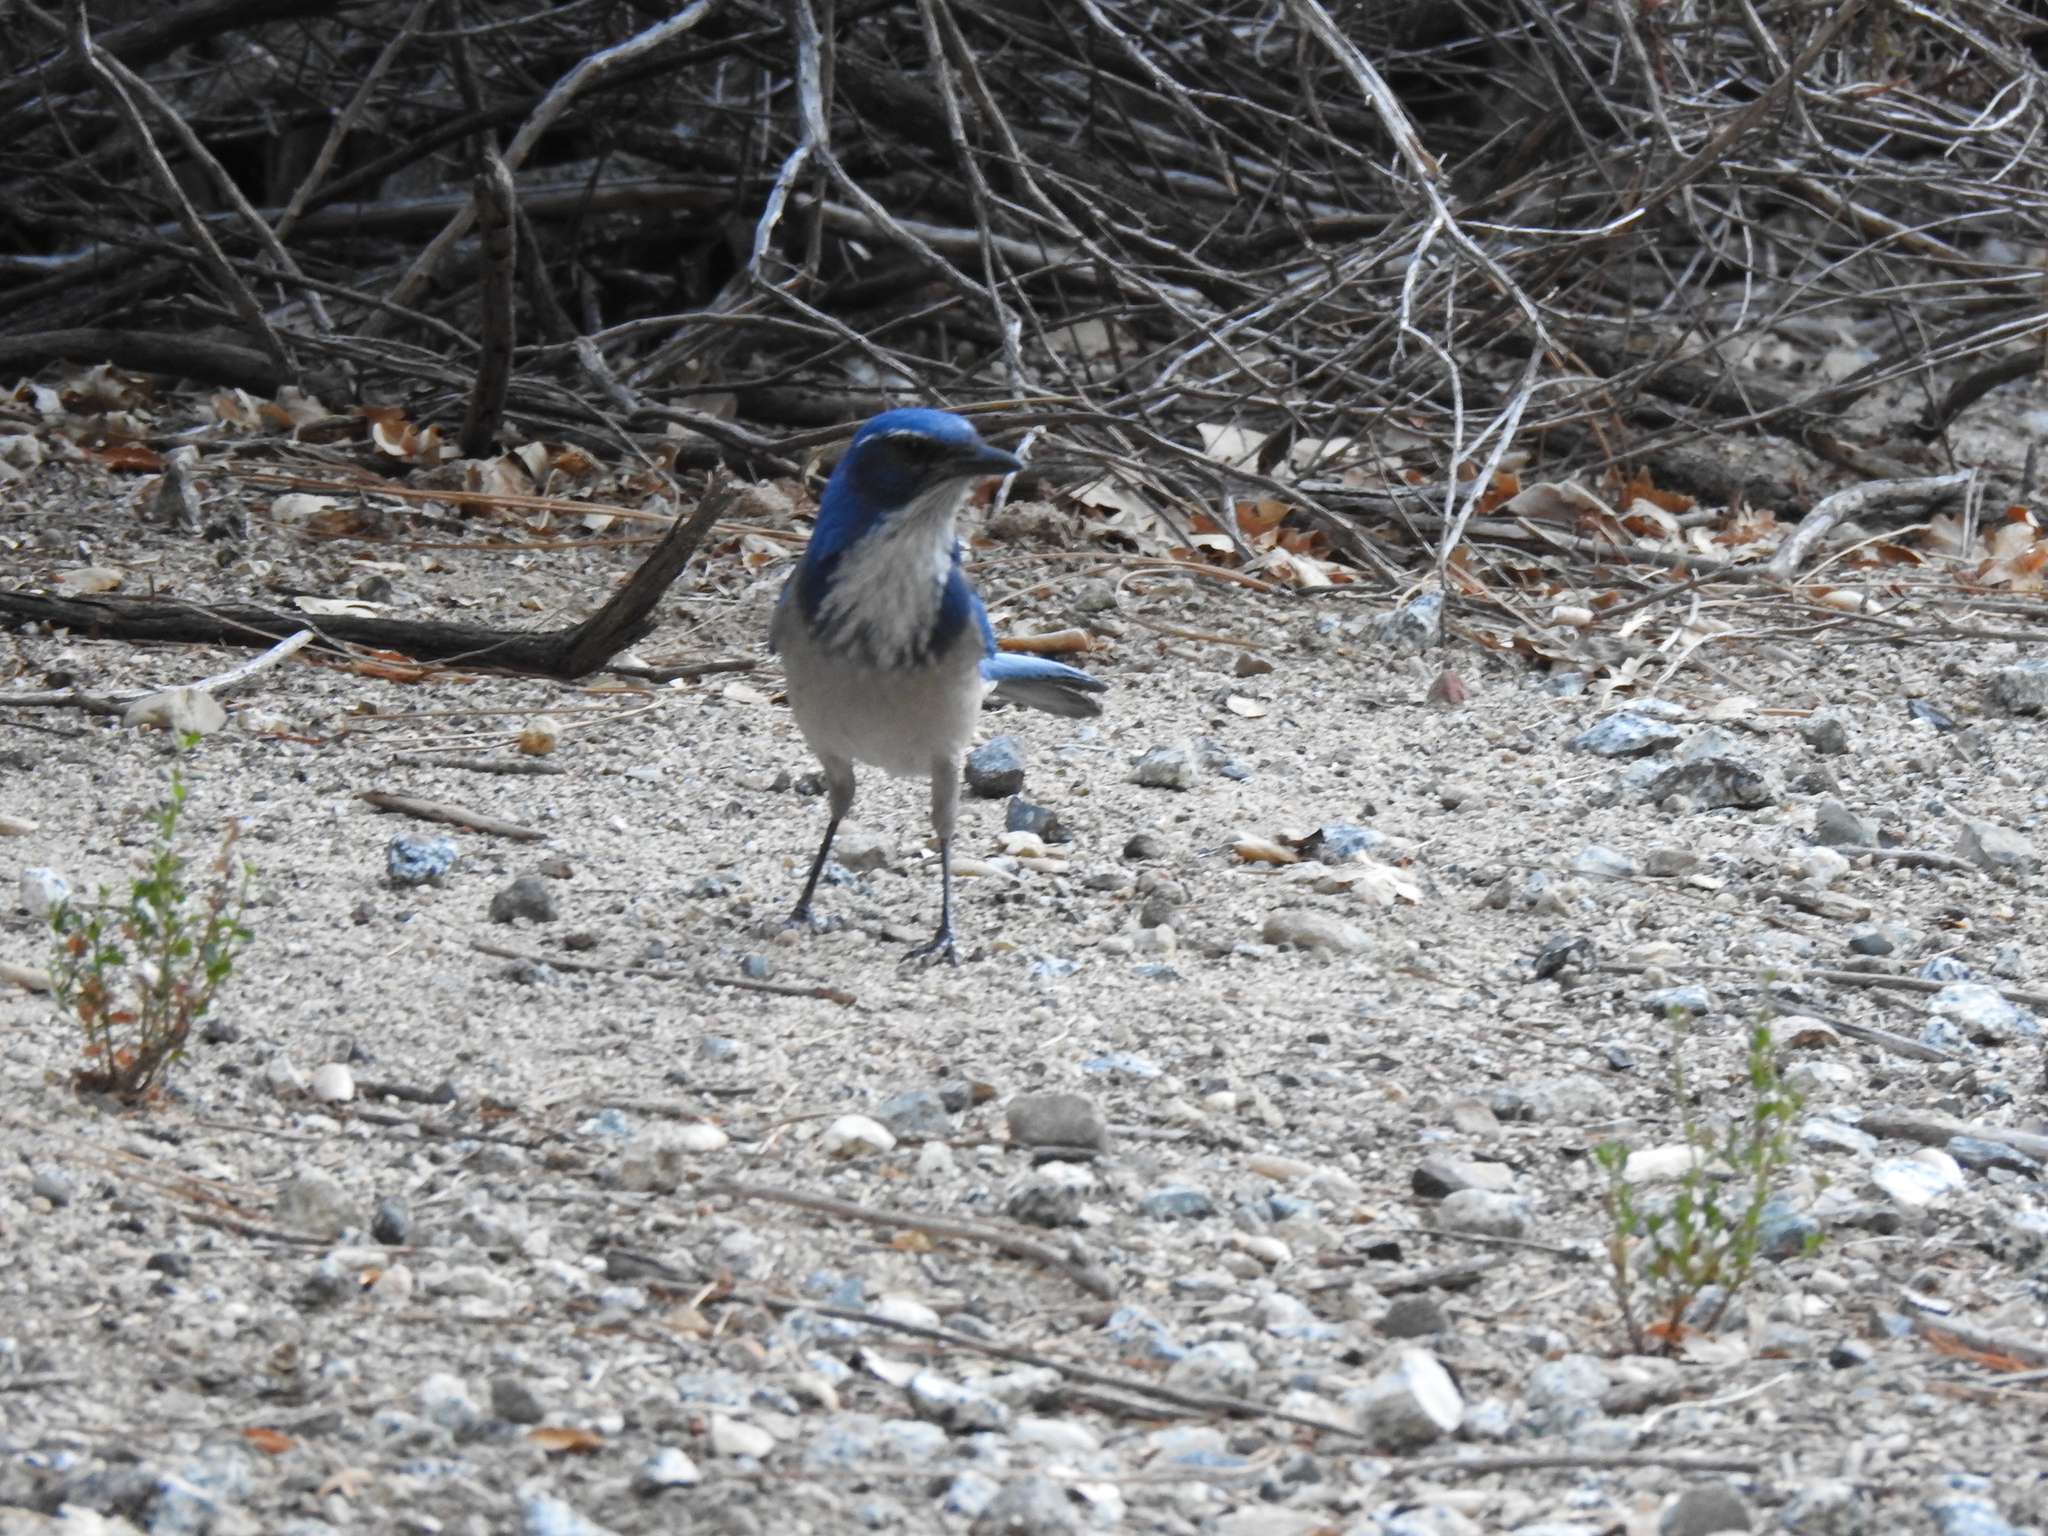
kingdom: Animalia
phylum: Chordata
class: Aves
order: Passeriformes
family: Corvidae
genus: Aphelocoma
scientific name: Aphelocoma californica
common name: California scrub-jay
